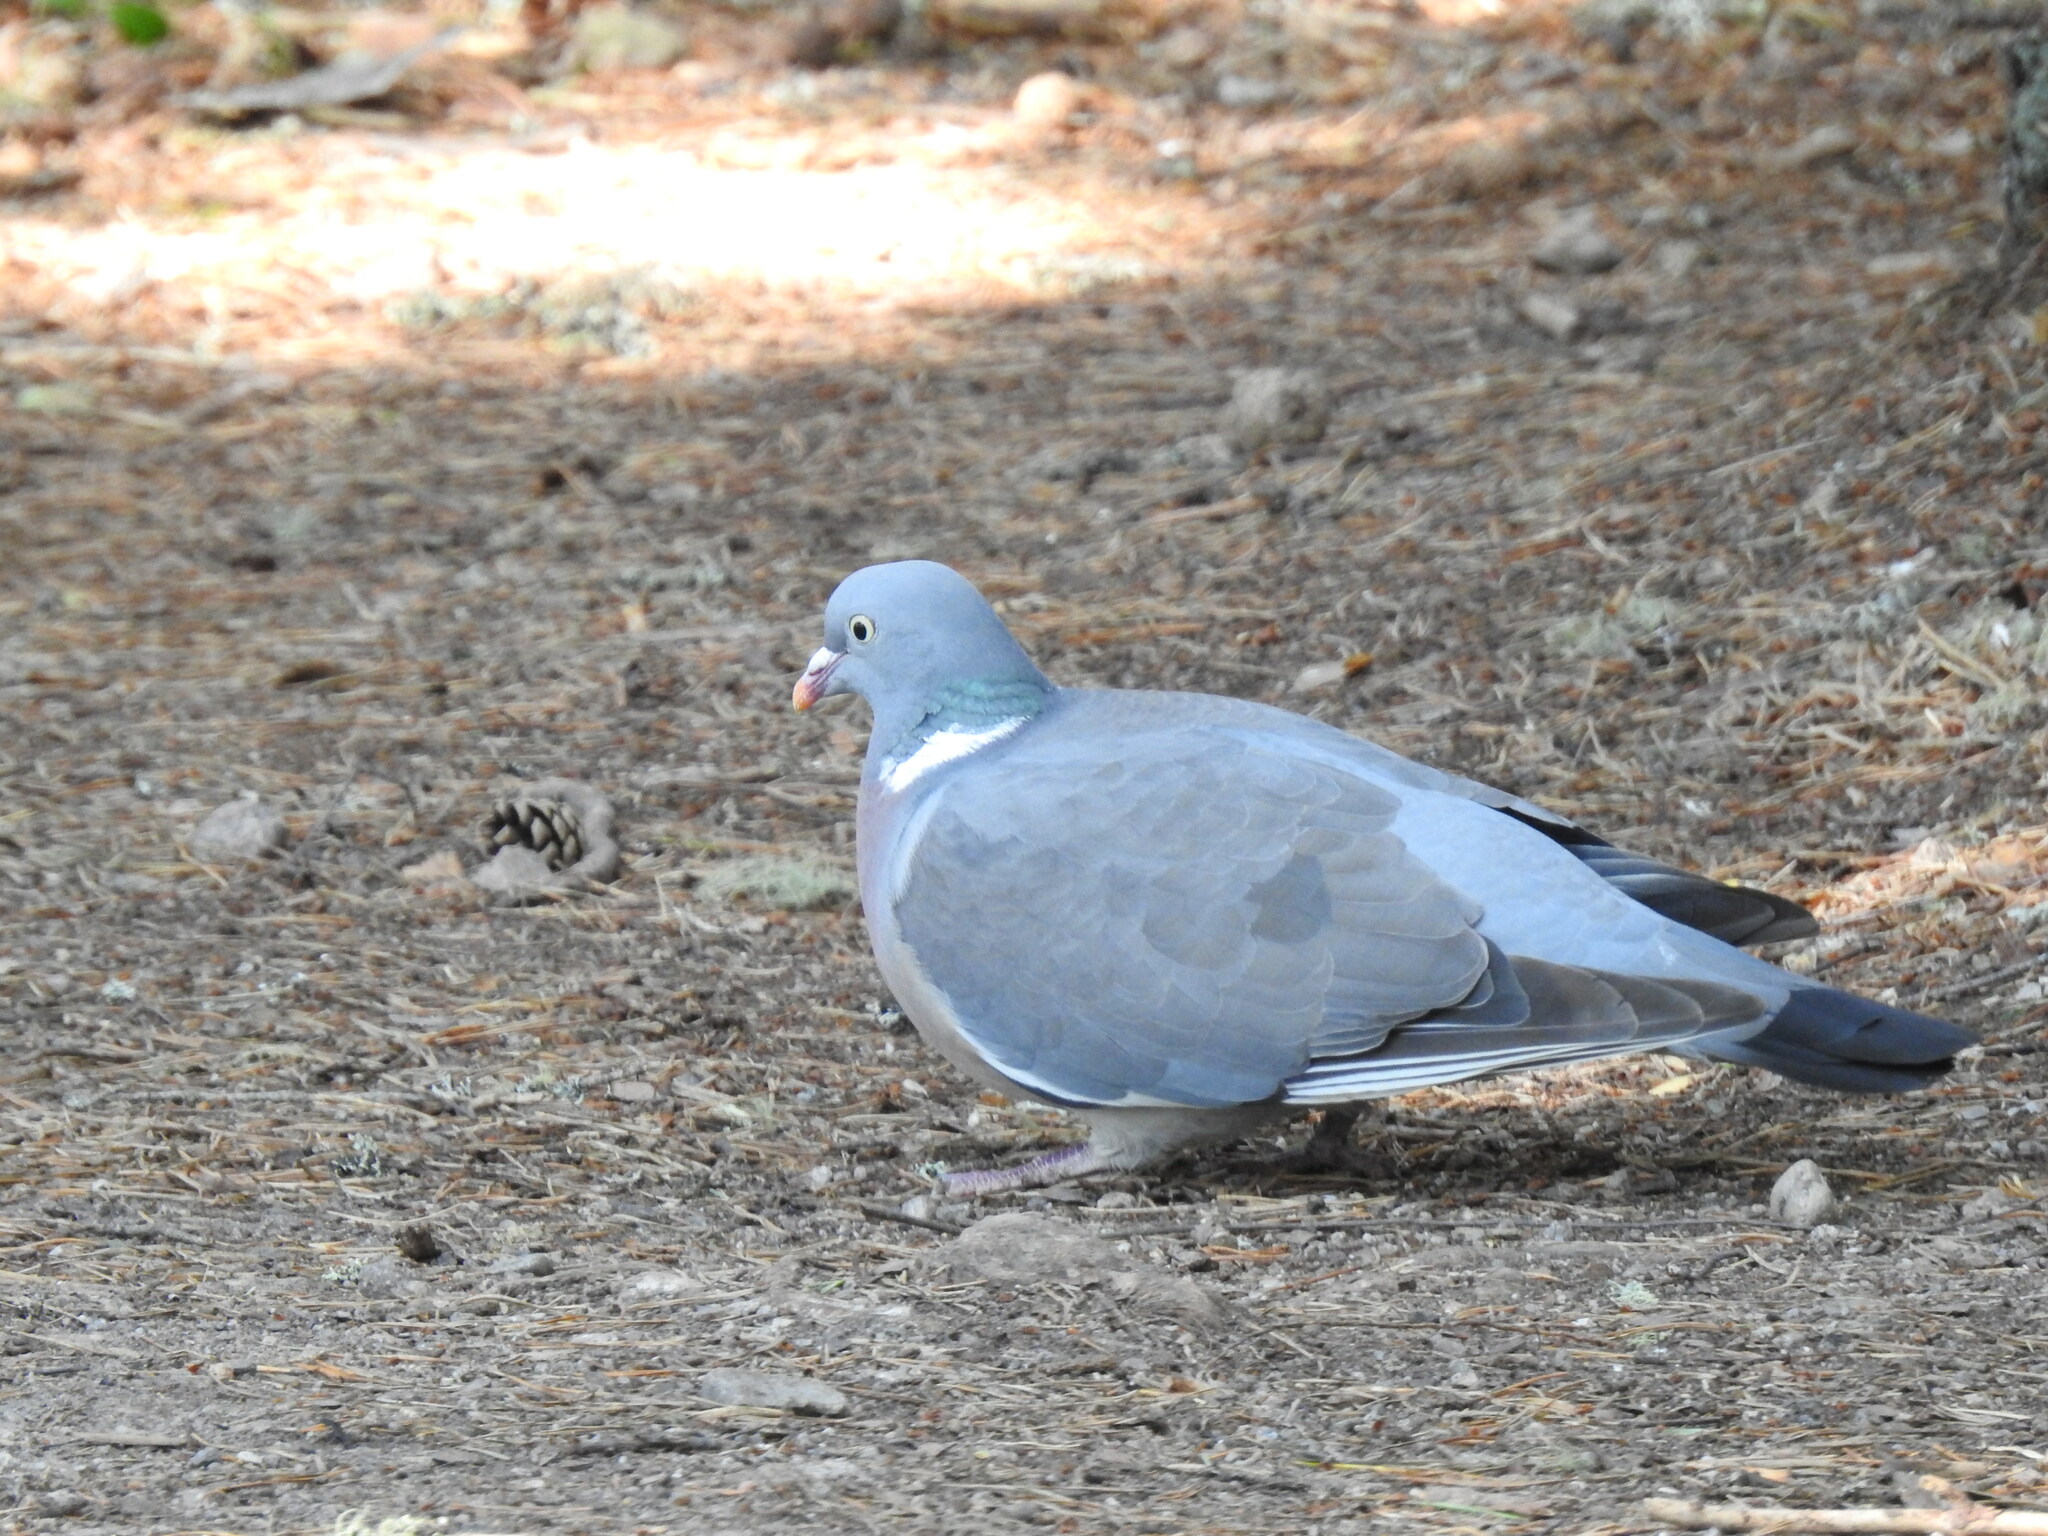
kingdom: Animalia
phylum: Chordata
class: Aves
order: Columbiformes
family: Columbidae
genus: Columba
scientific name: Columba palumbus
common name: Common wood pigeon
